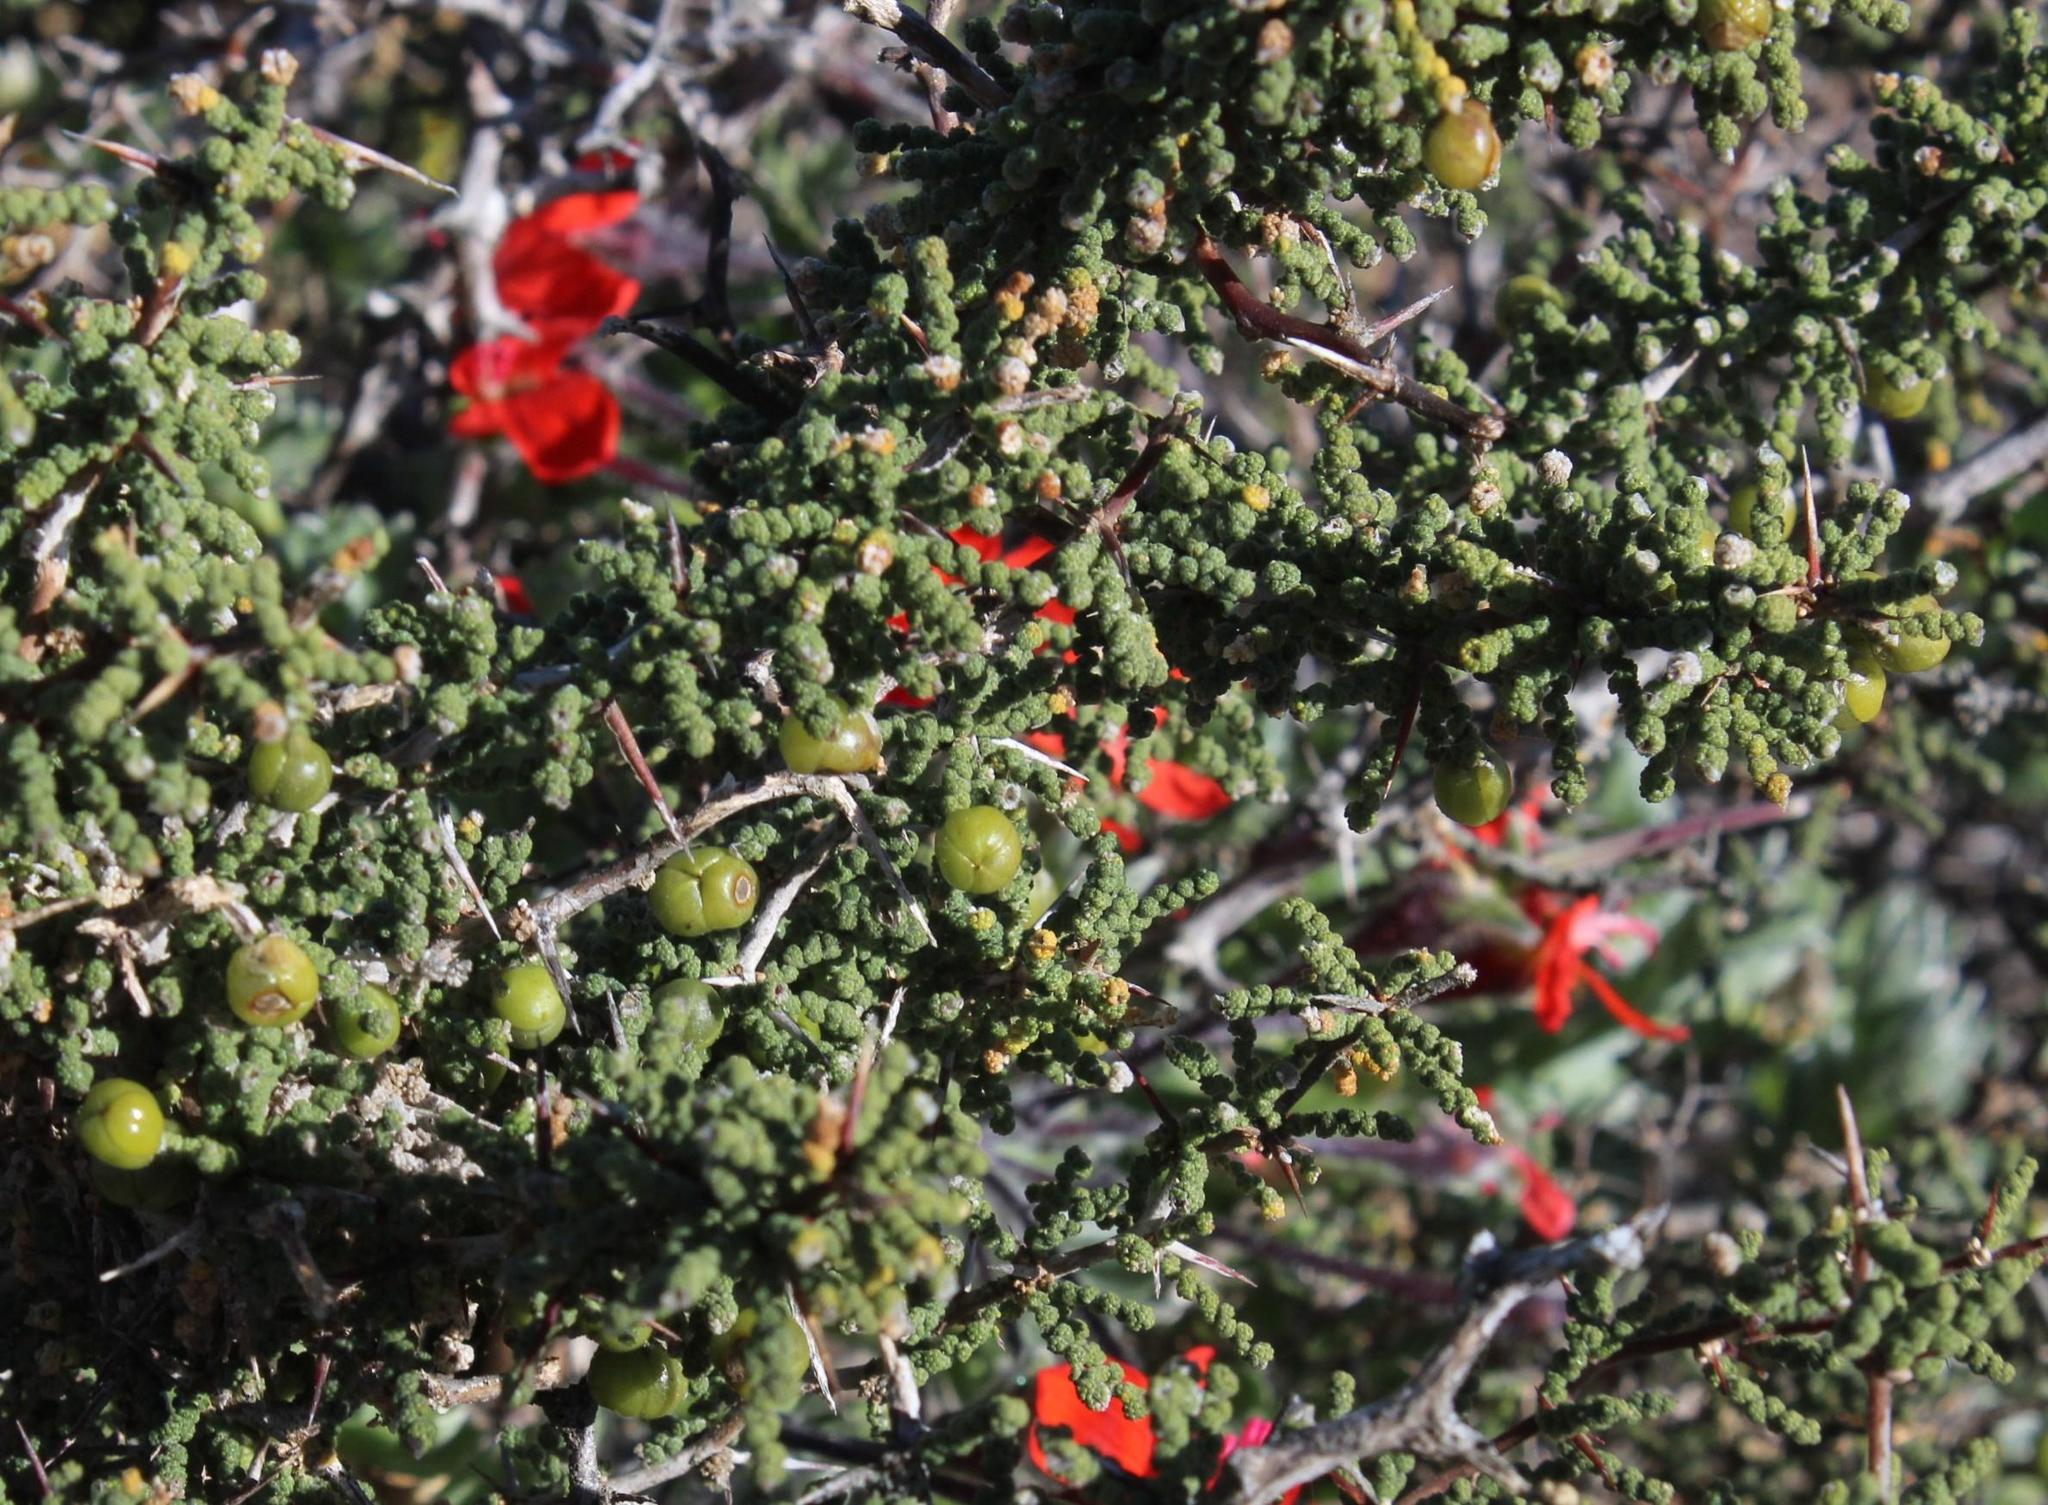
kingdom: Plantae
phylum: Tracheophyta
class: Magnoliopsida
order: Geraniales
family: Geraniaceae
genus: Pelargonium
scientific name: Pelargonium fulgidum
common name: Celandine-leaf pelargonium
